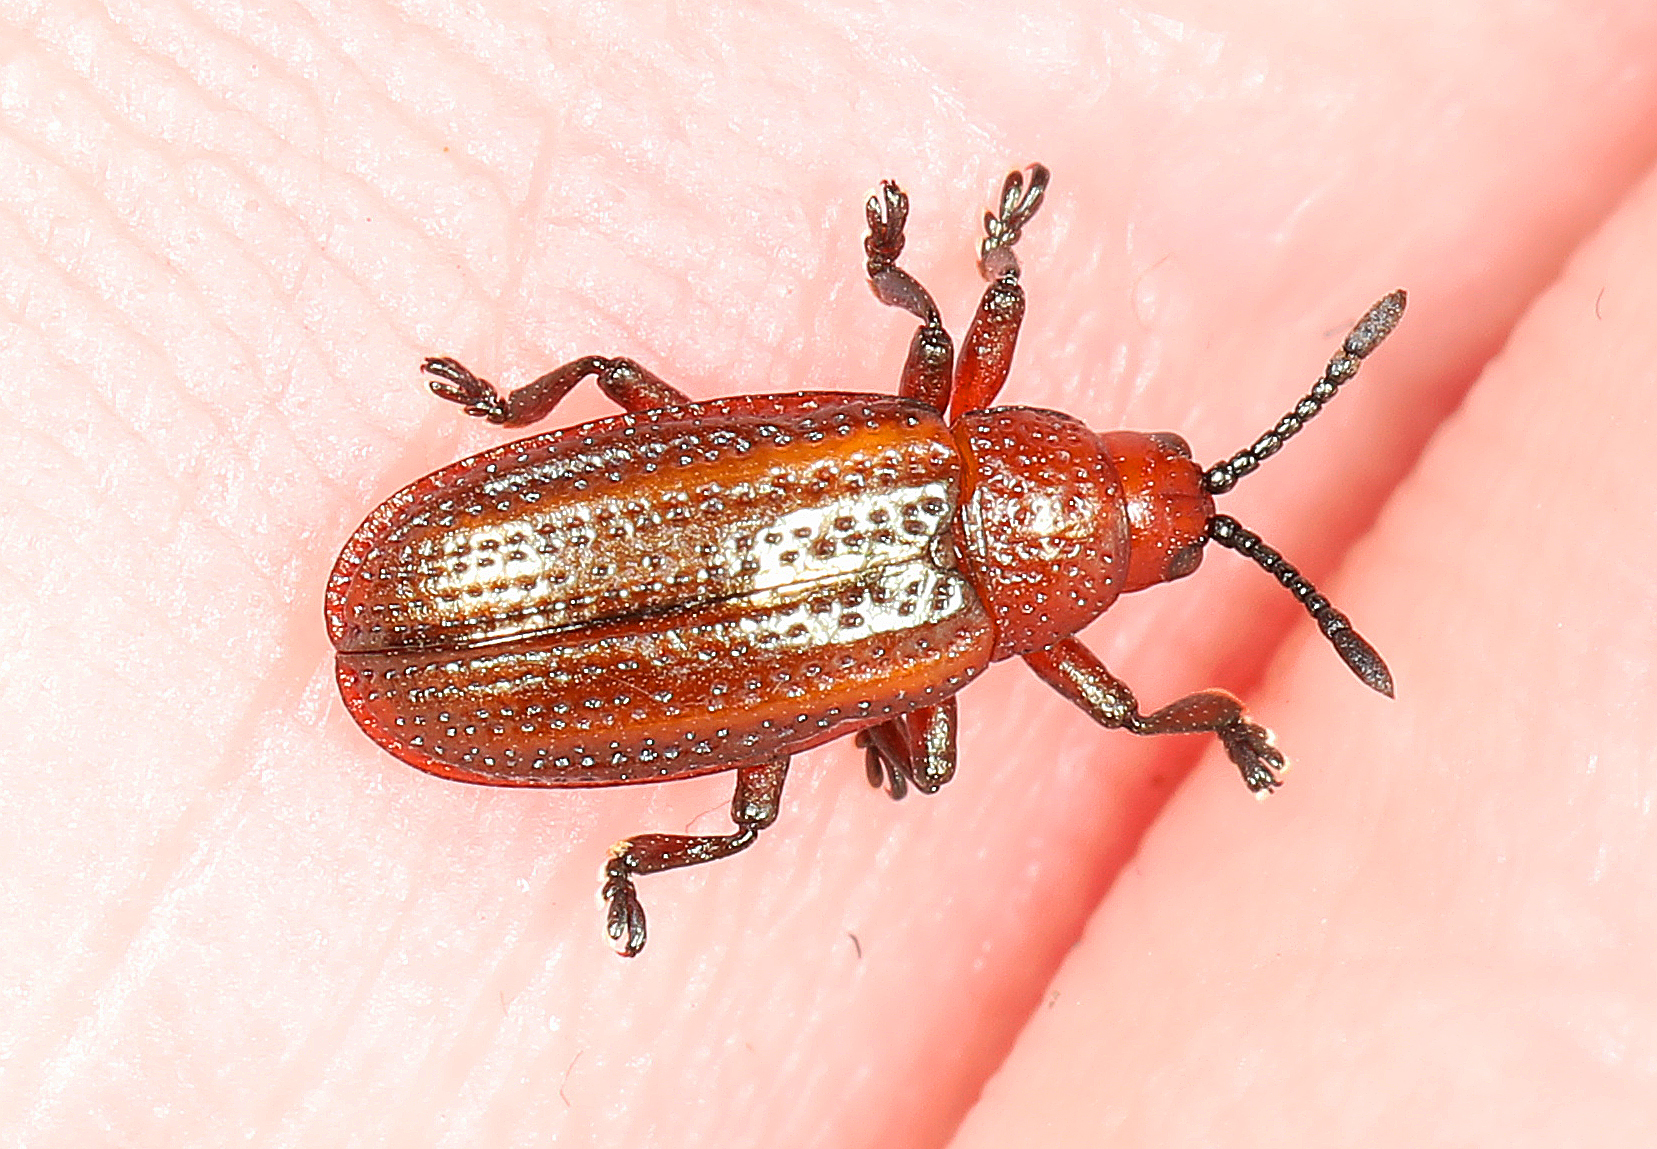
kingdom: Animalia
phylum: Arthropoda
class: Insecta
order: Coleoptera
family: Chrysomelidae
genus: Microrhopala
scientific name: Microrhopala vittata
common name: Goldenrod leaf miner beetle
